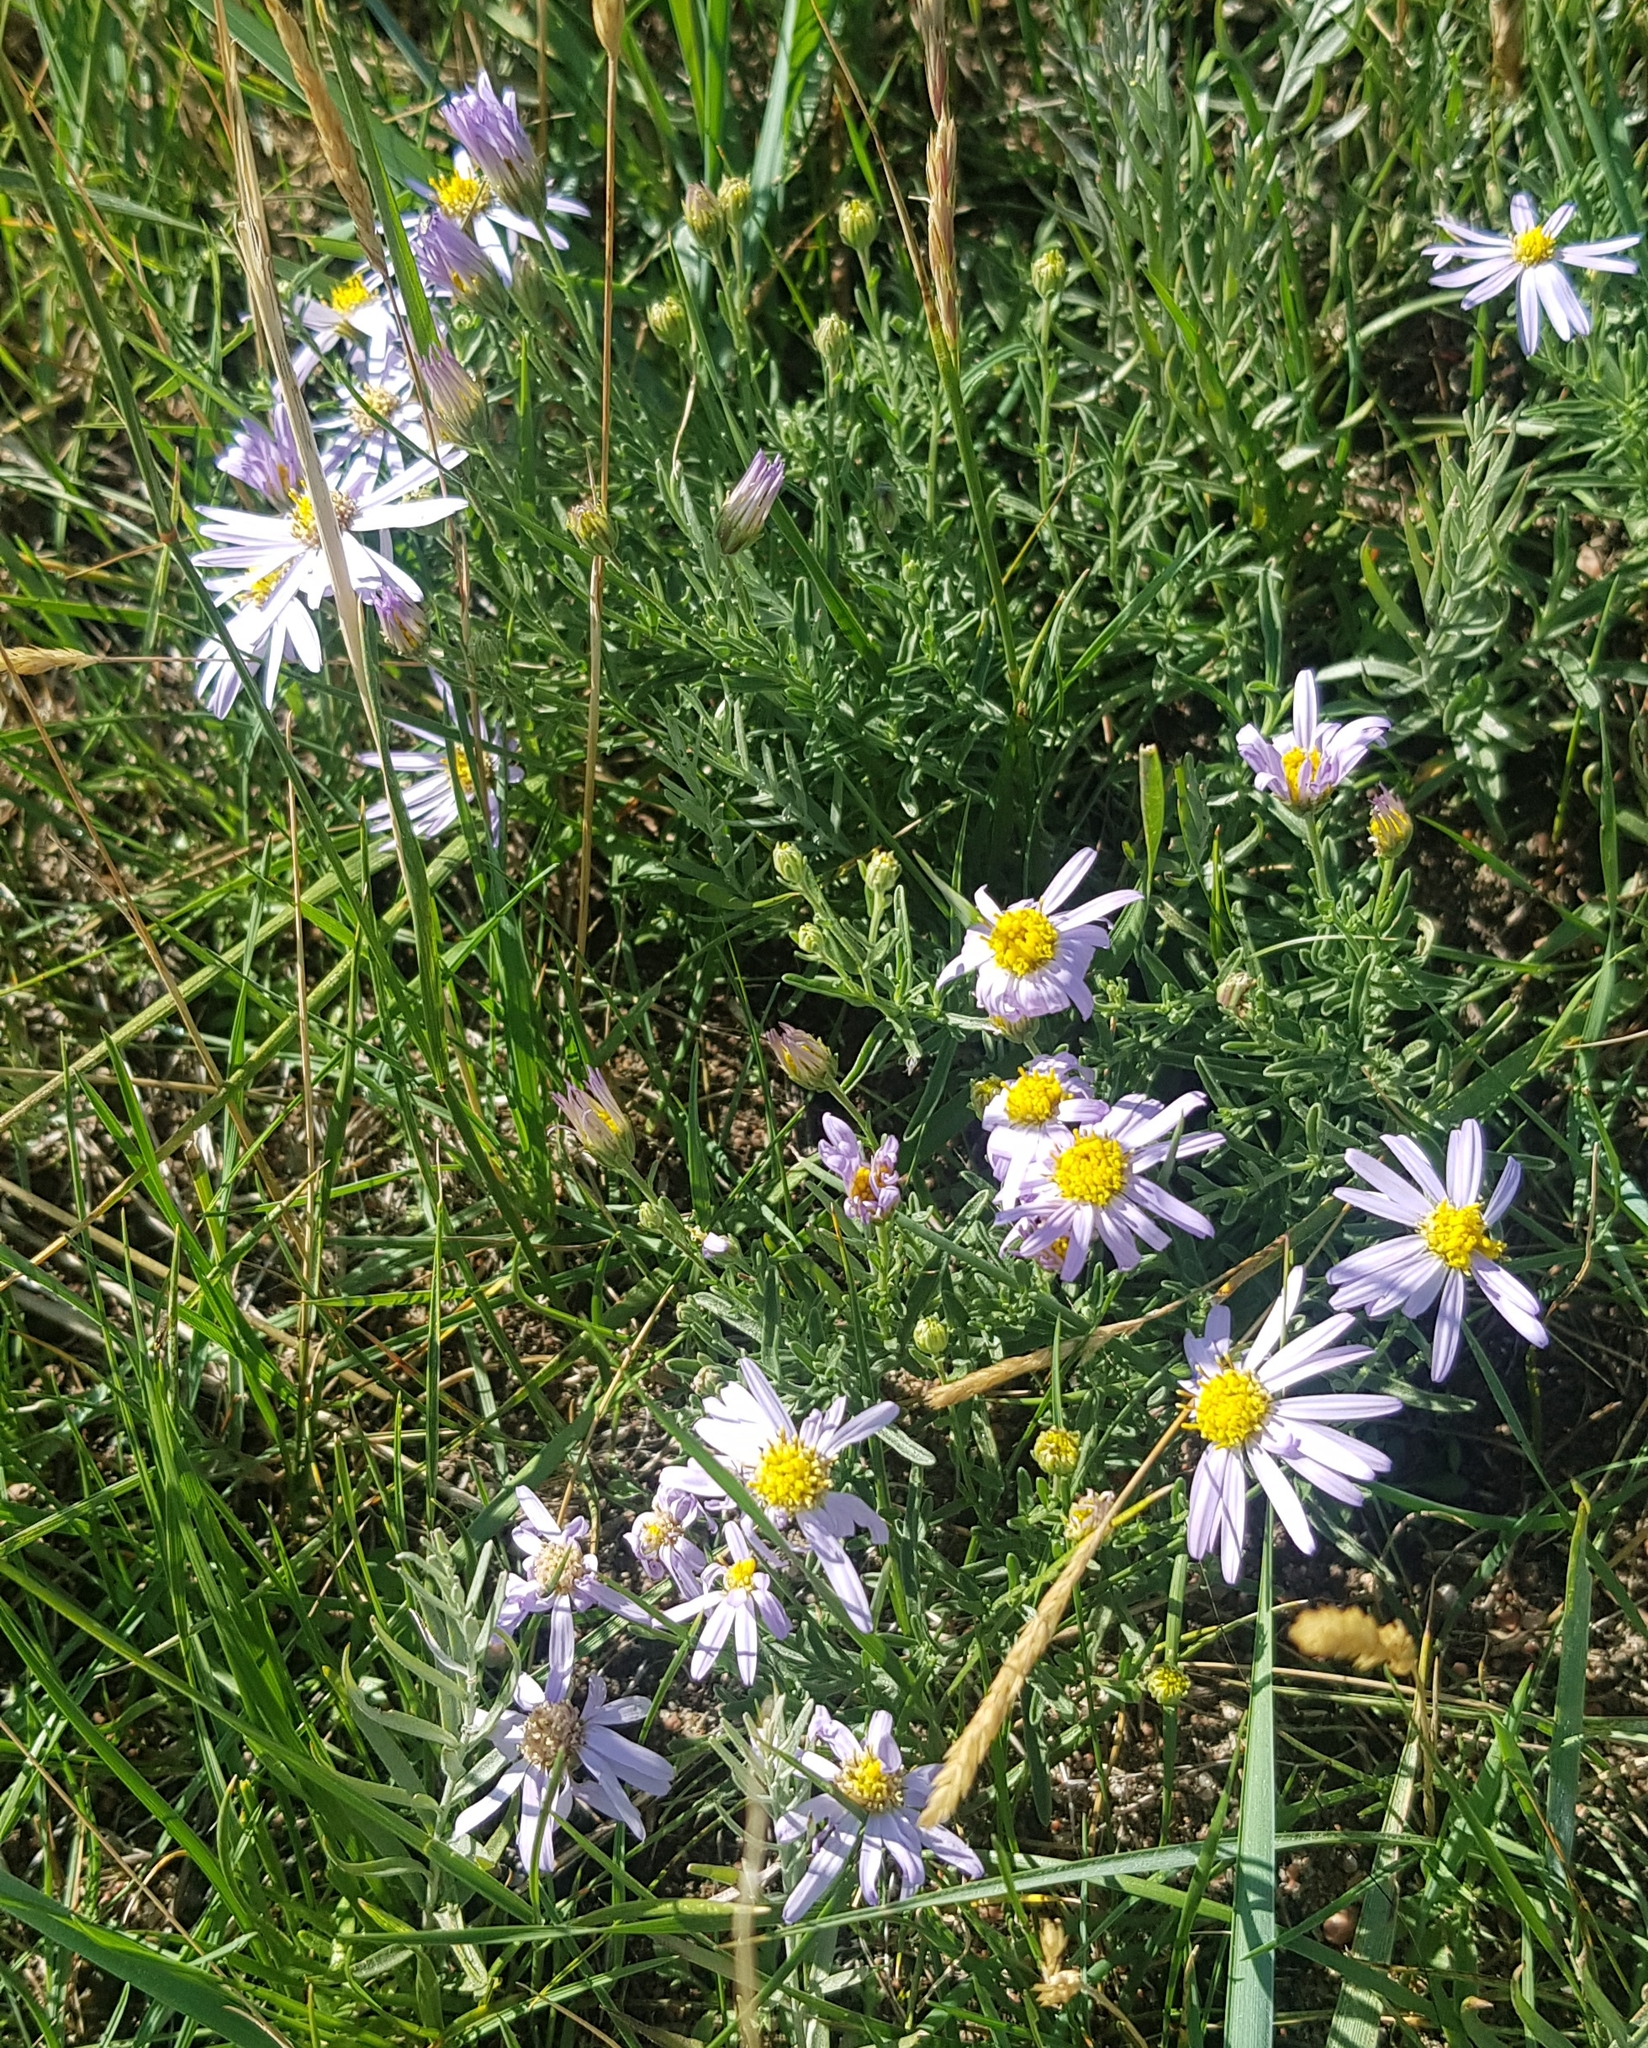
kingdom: Plantae
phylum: Tracheophyta
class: Magnoliopsida
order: Asterales
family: Asteraceae
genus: Heteropappus
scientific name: Heteropappus altaicus
